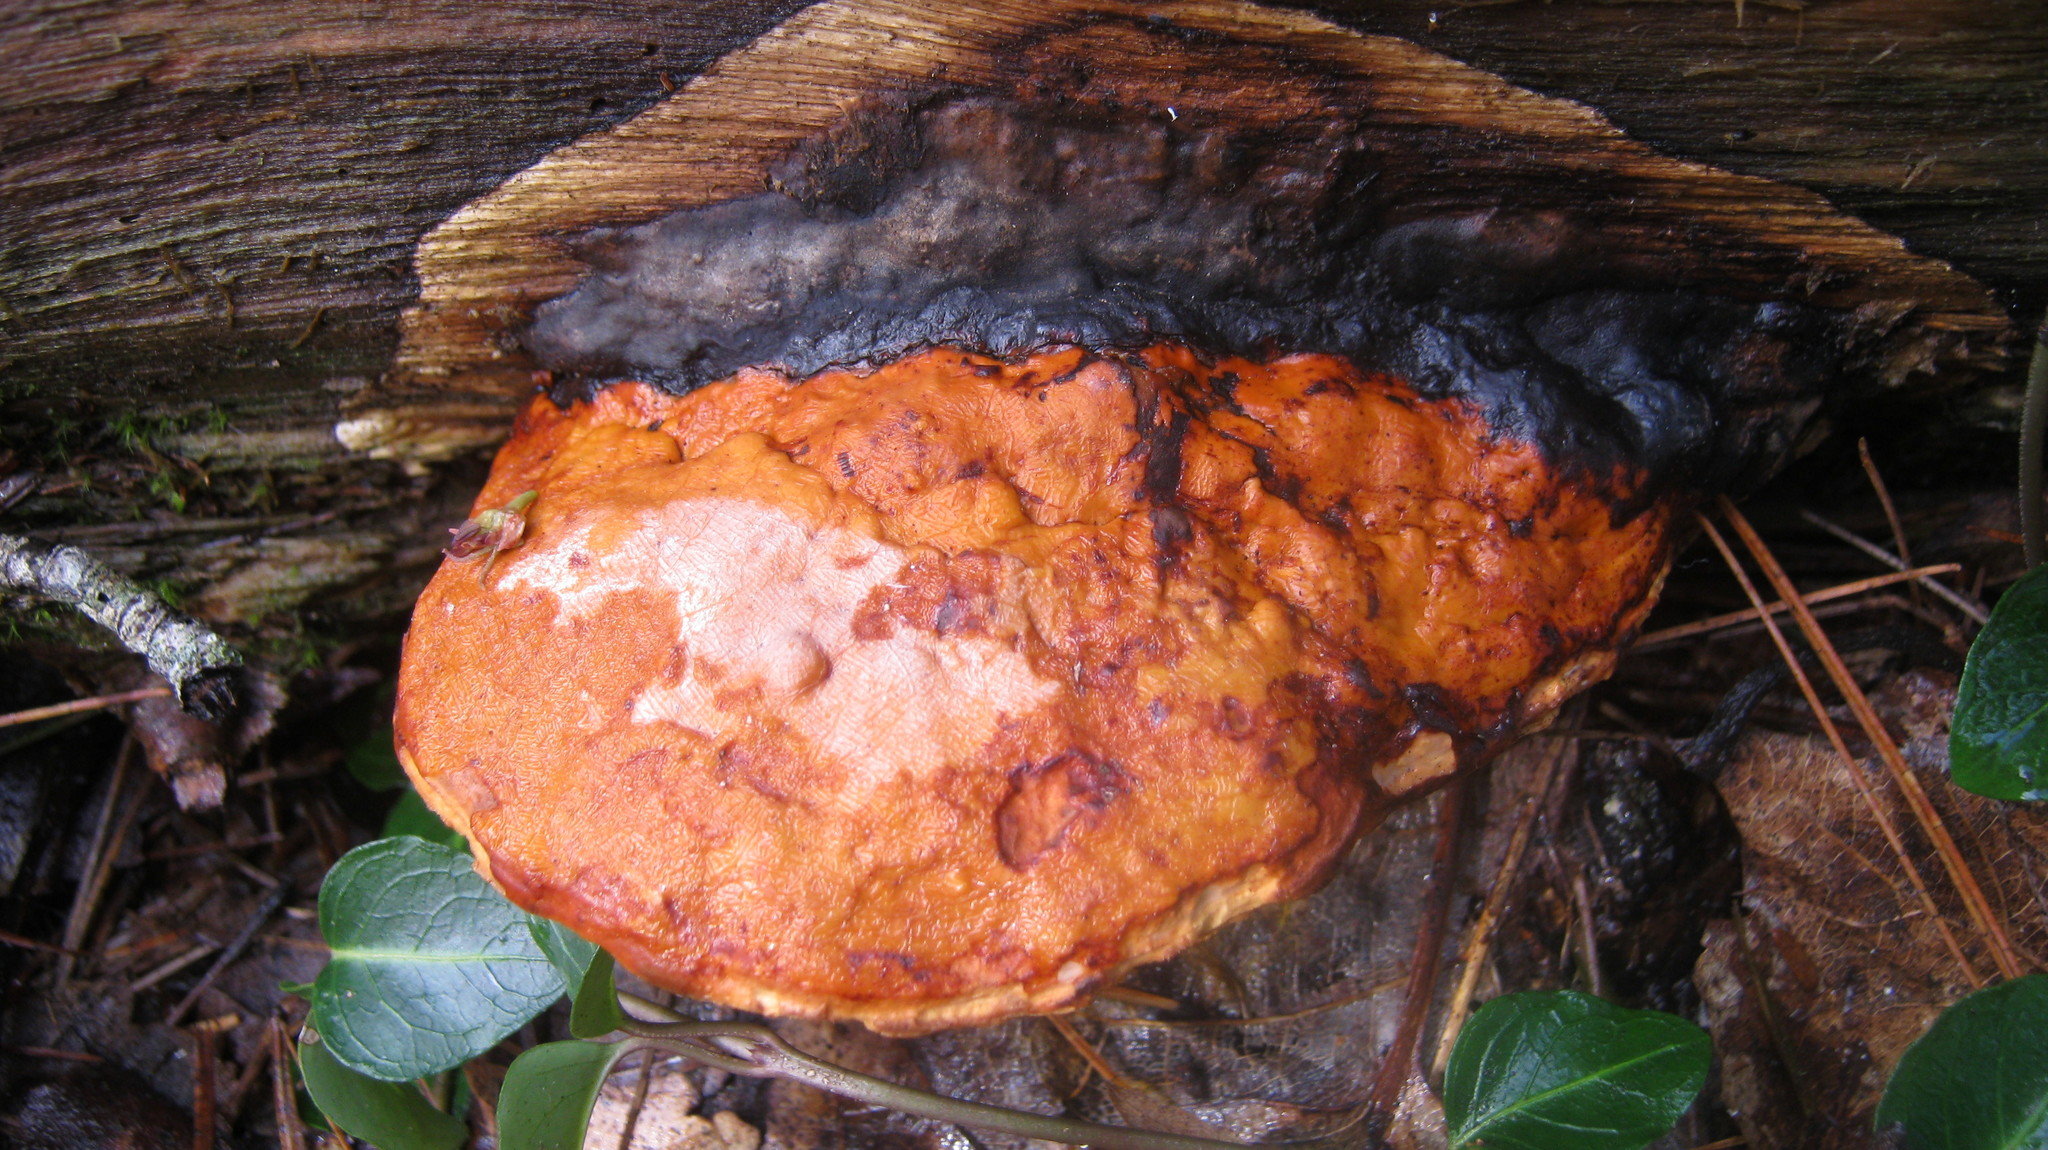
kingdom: Fungi
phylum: Basidiomycota
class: Agaricomycetes
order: Polyporales
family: Fomitopsidaceae
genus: Fomitopsis
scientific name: Fomitopsis mounceae
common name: Northern red belt
